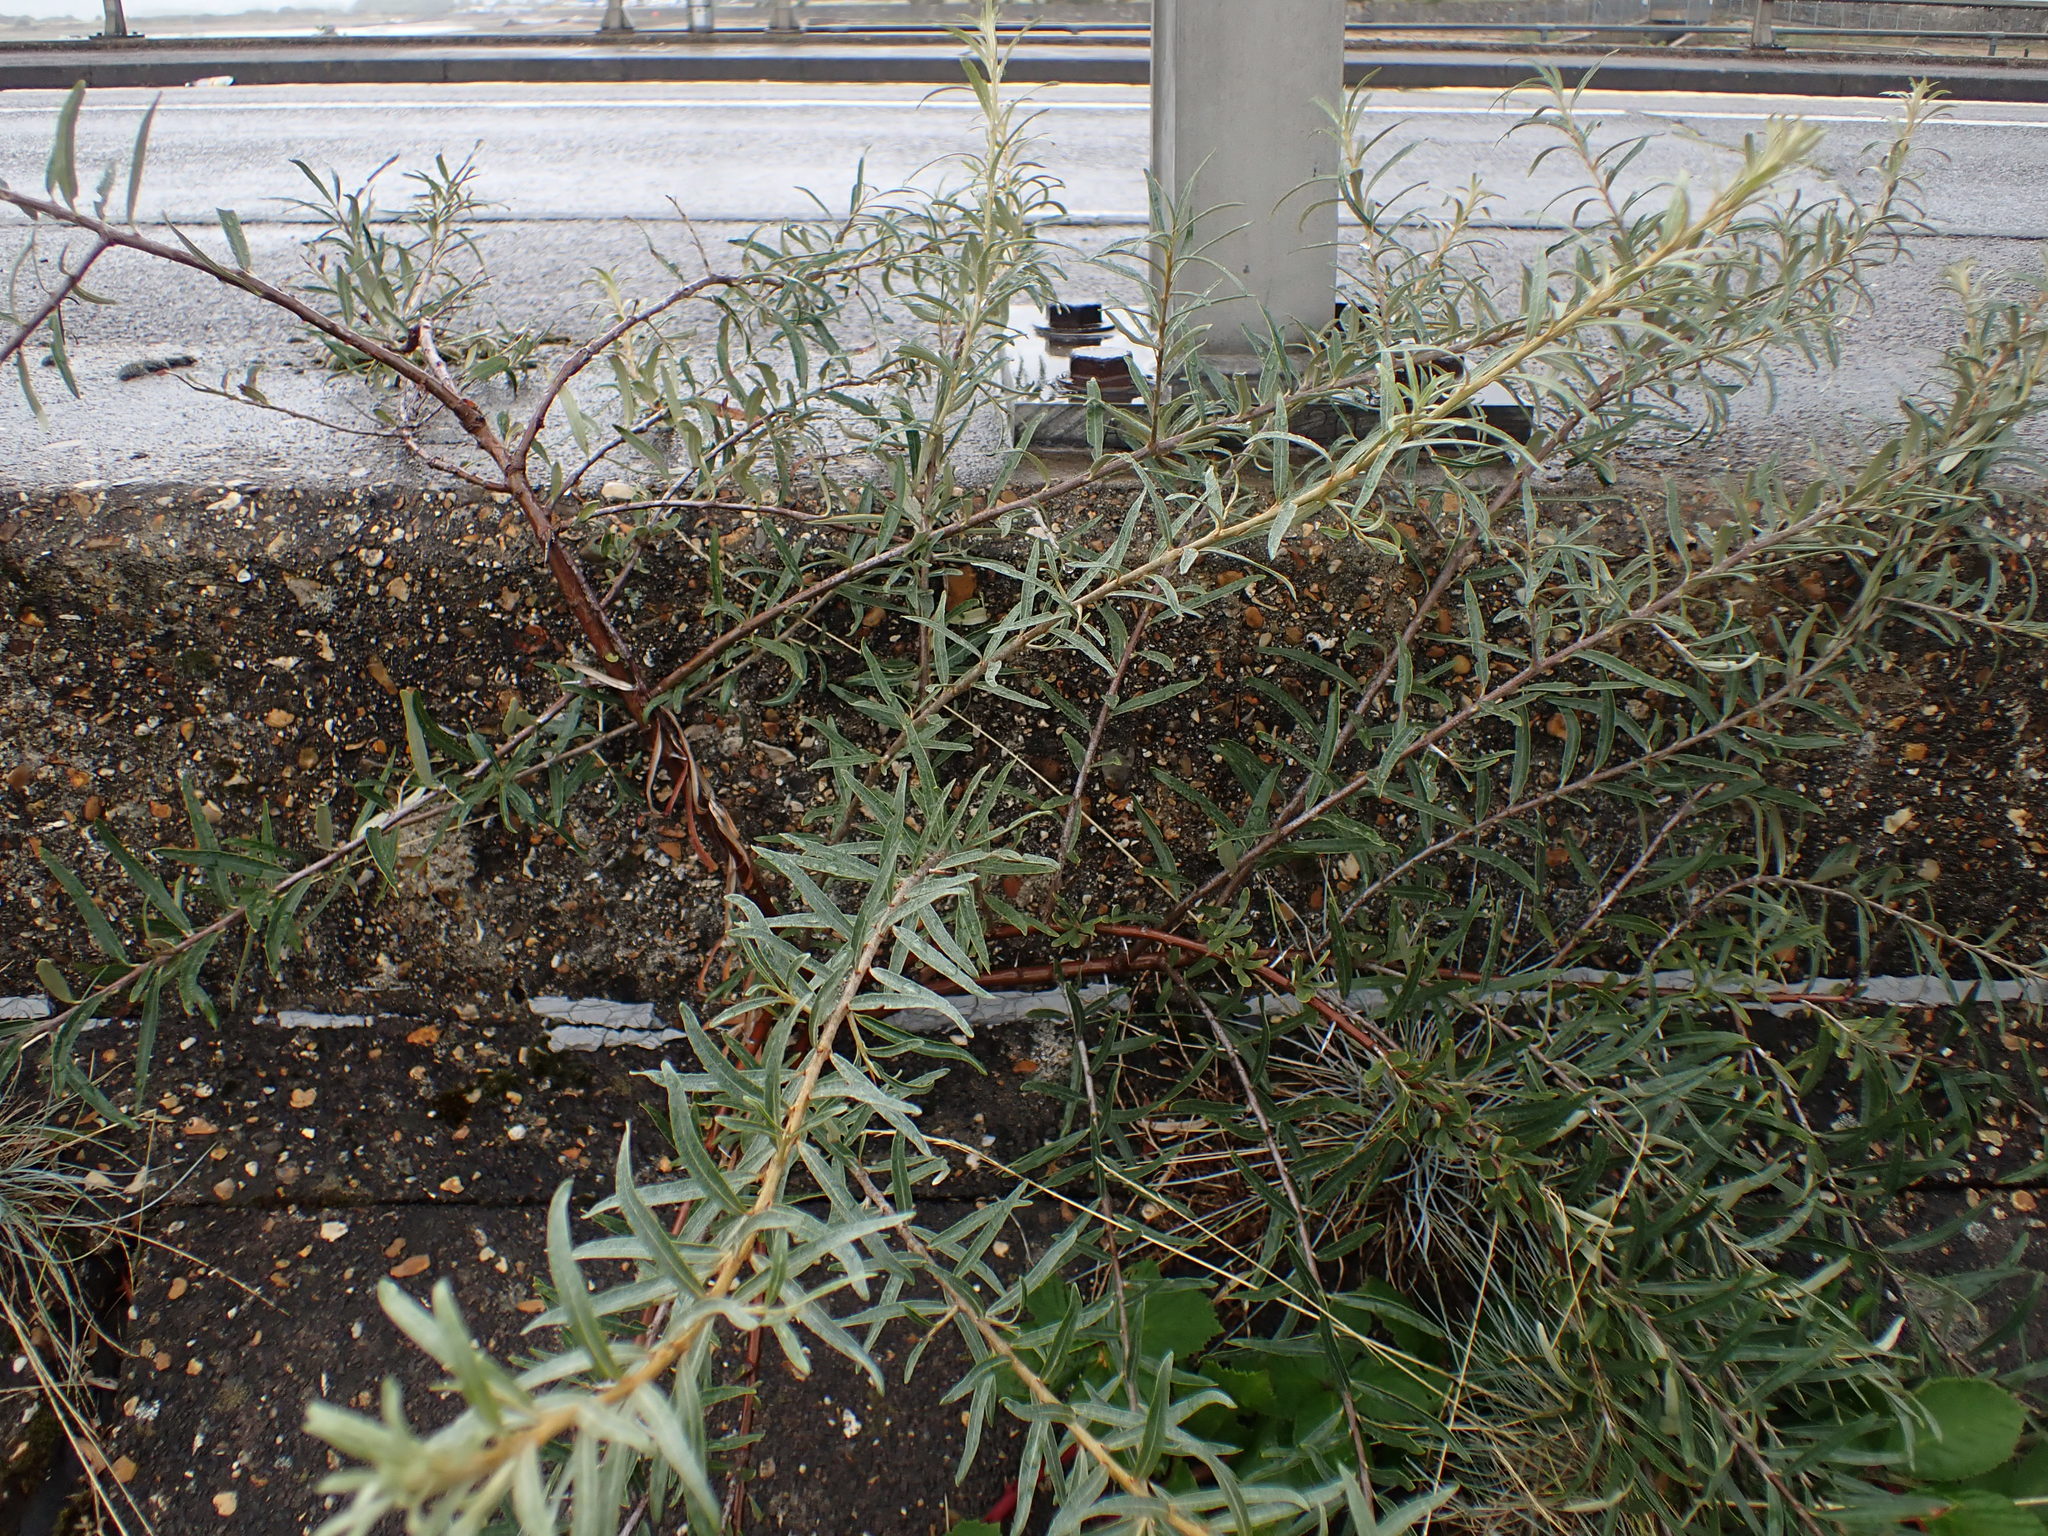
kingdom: Plantae
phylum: Tracheophyta
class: Magnoliopsida
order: Rosales
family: Elaeagnaceae
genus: Hippophae
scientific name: Hippophae rhamnoides
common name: Sea-buckthorn
